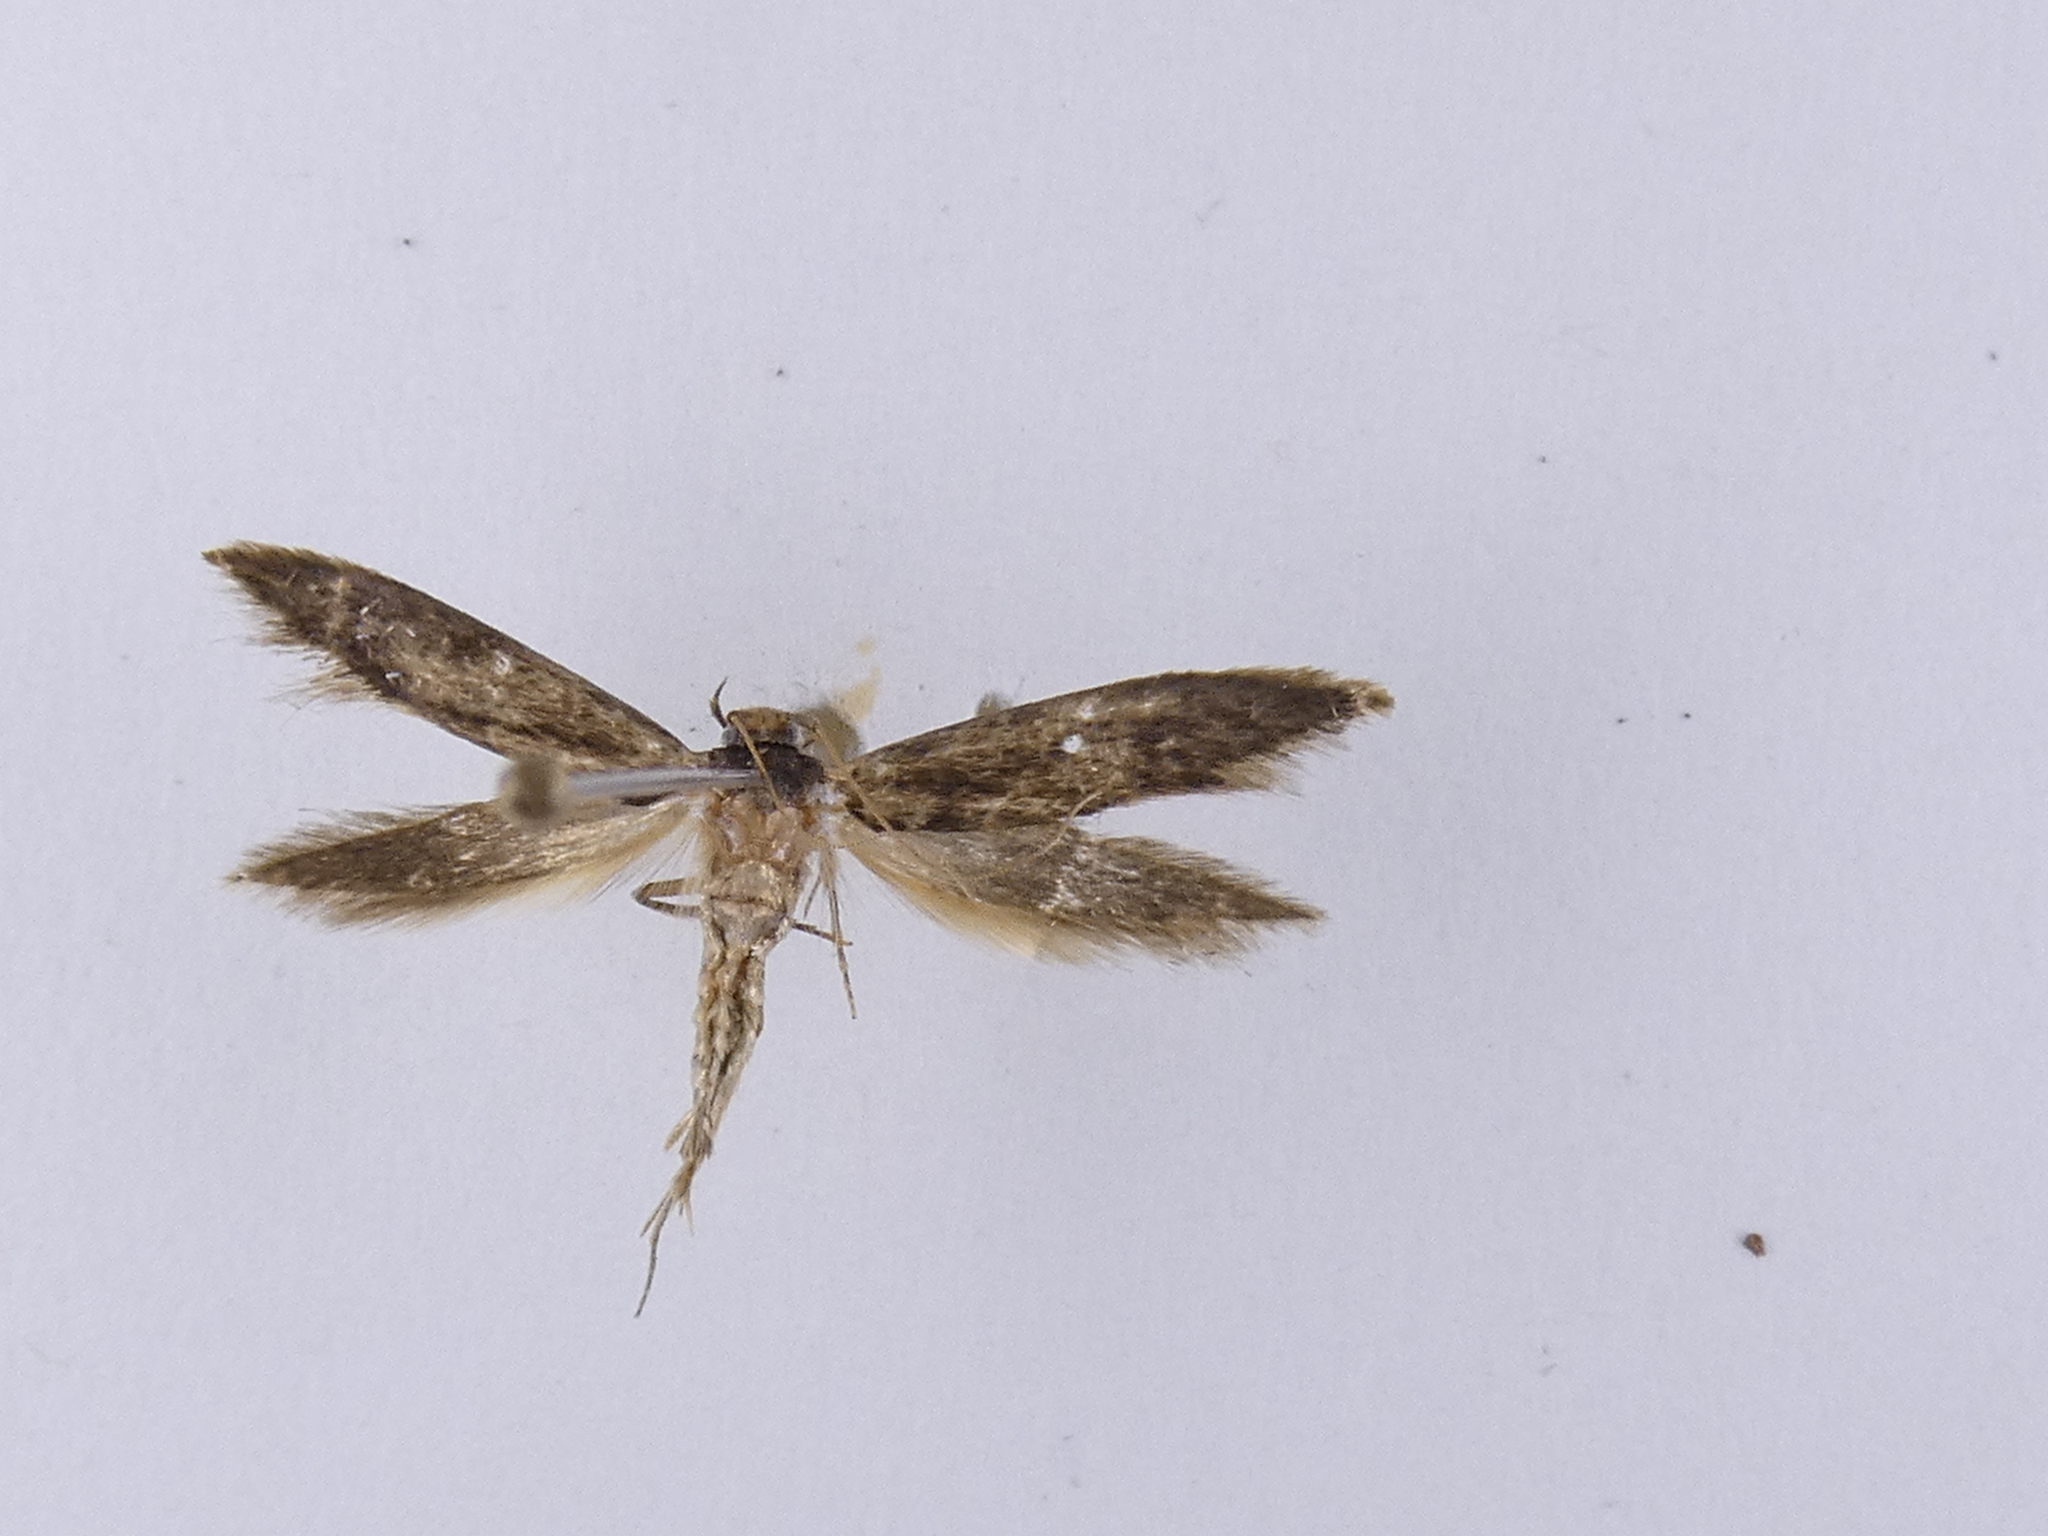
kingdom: Animalia
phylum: Arthropoda
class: Insecta
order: Lepidoptera
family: Tineidae
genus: Opogona
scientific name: Opogona omoscopa
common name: Moth
